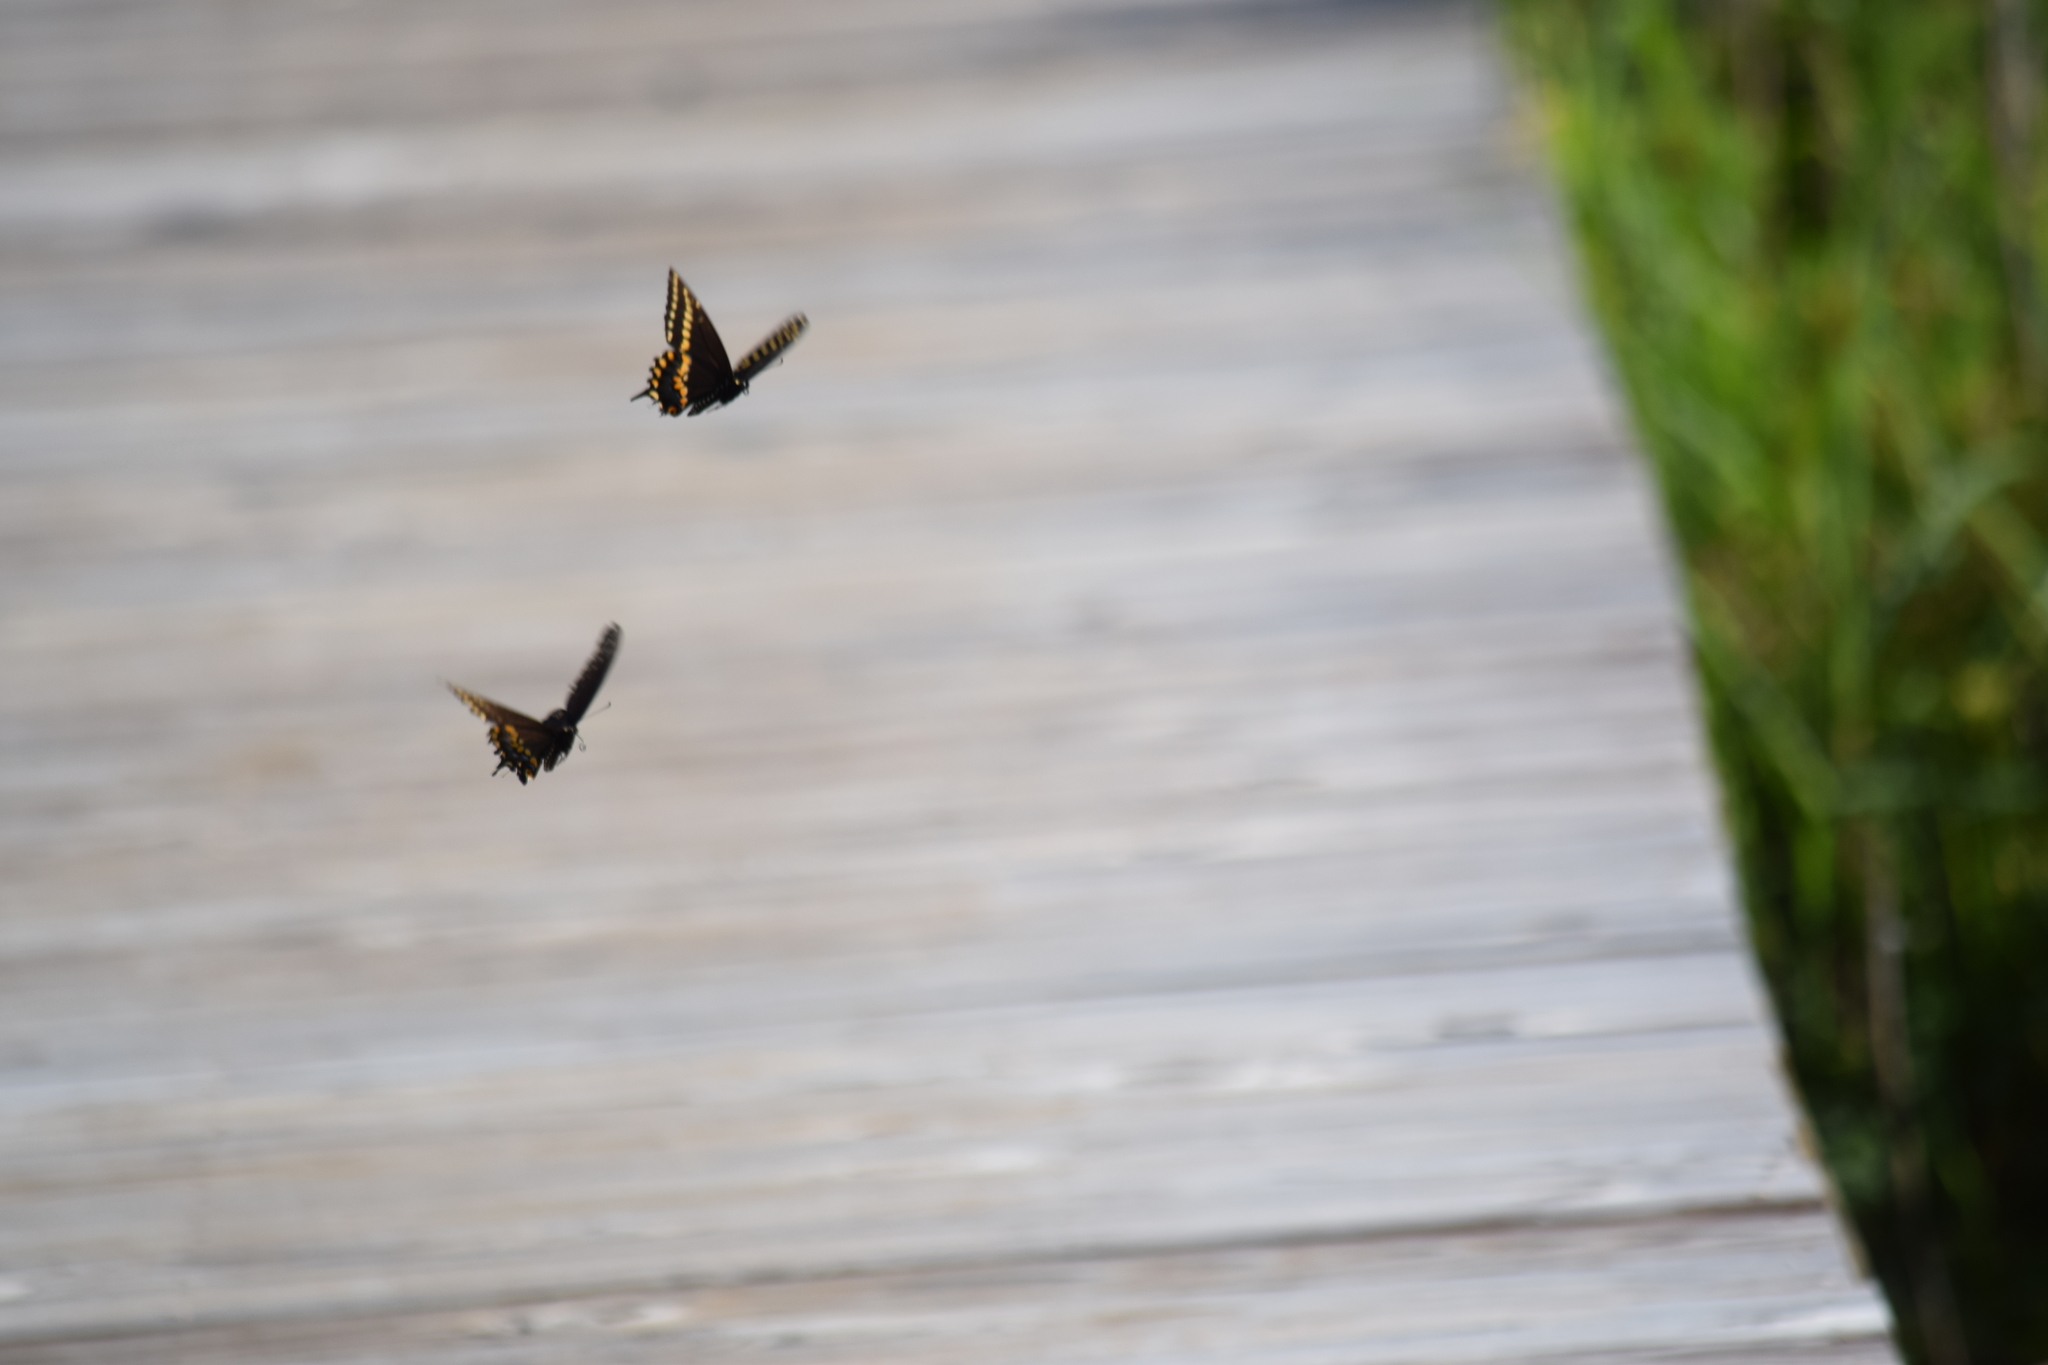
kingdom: Animalia
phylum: Arthropoda
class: Insecta
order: Lepidoptera
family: Papilionidae
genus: Papilio
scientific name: Papilio polyxenes
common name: Black swallowtail
